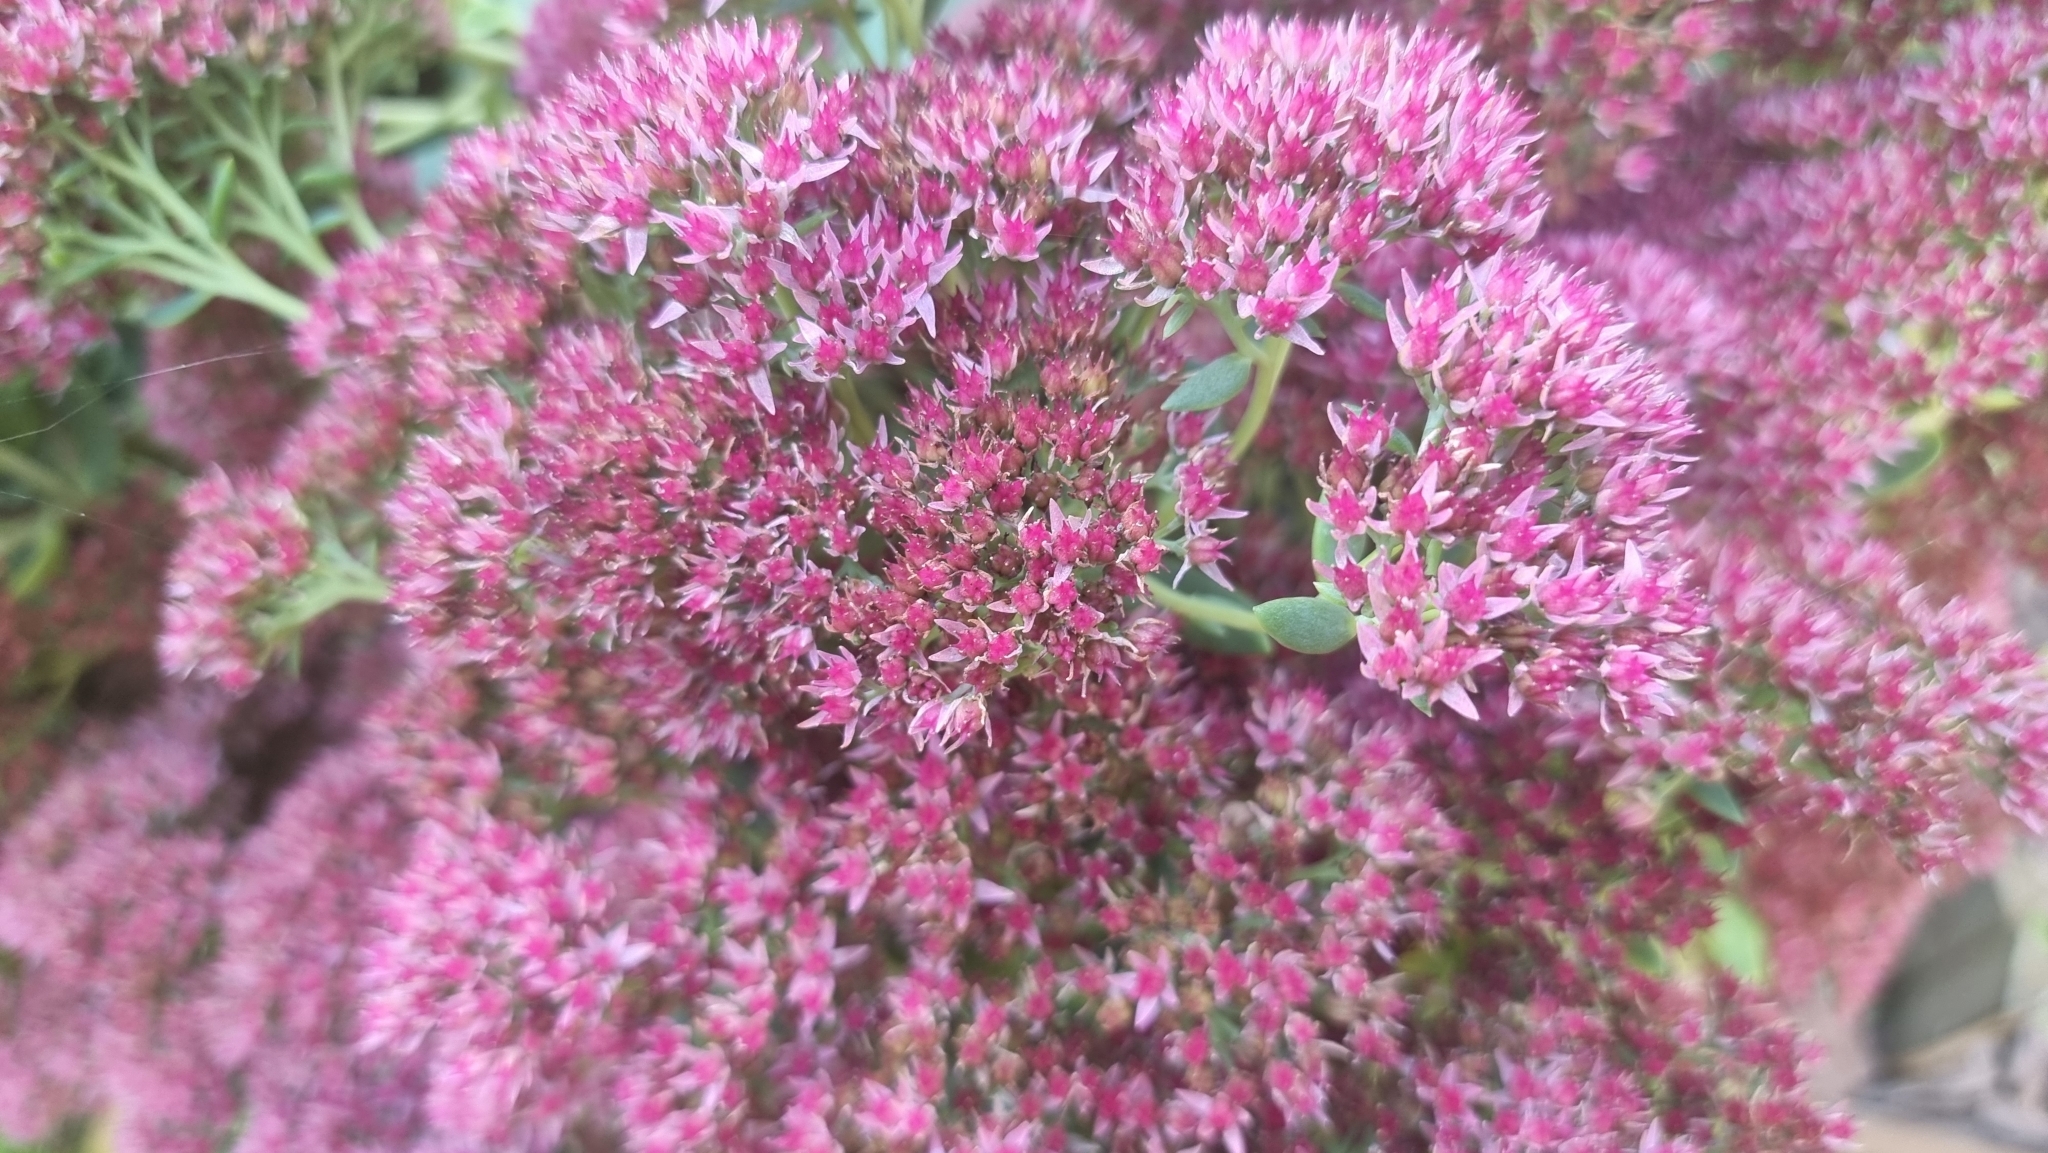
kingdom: Plantae
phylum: Tracheophyta
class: Magnoliopsida
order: Saxifragales
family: Crassulaceae
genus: Hylotelephium
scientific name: Hylotelephium
